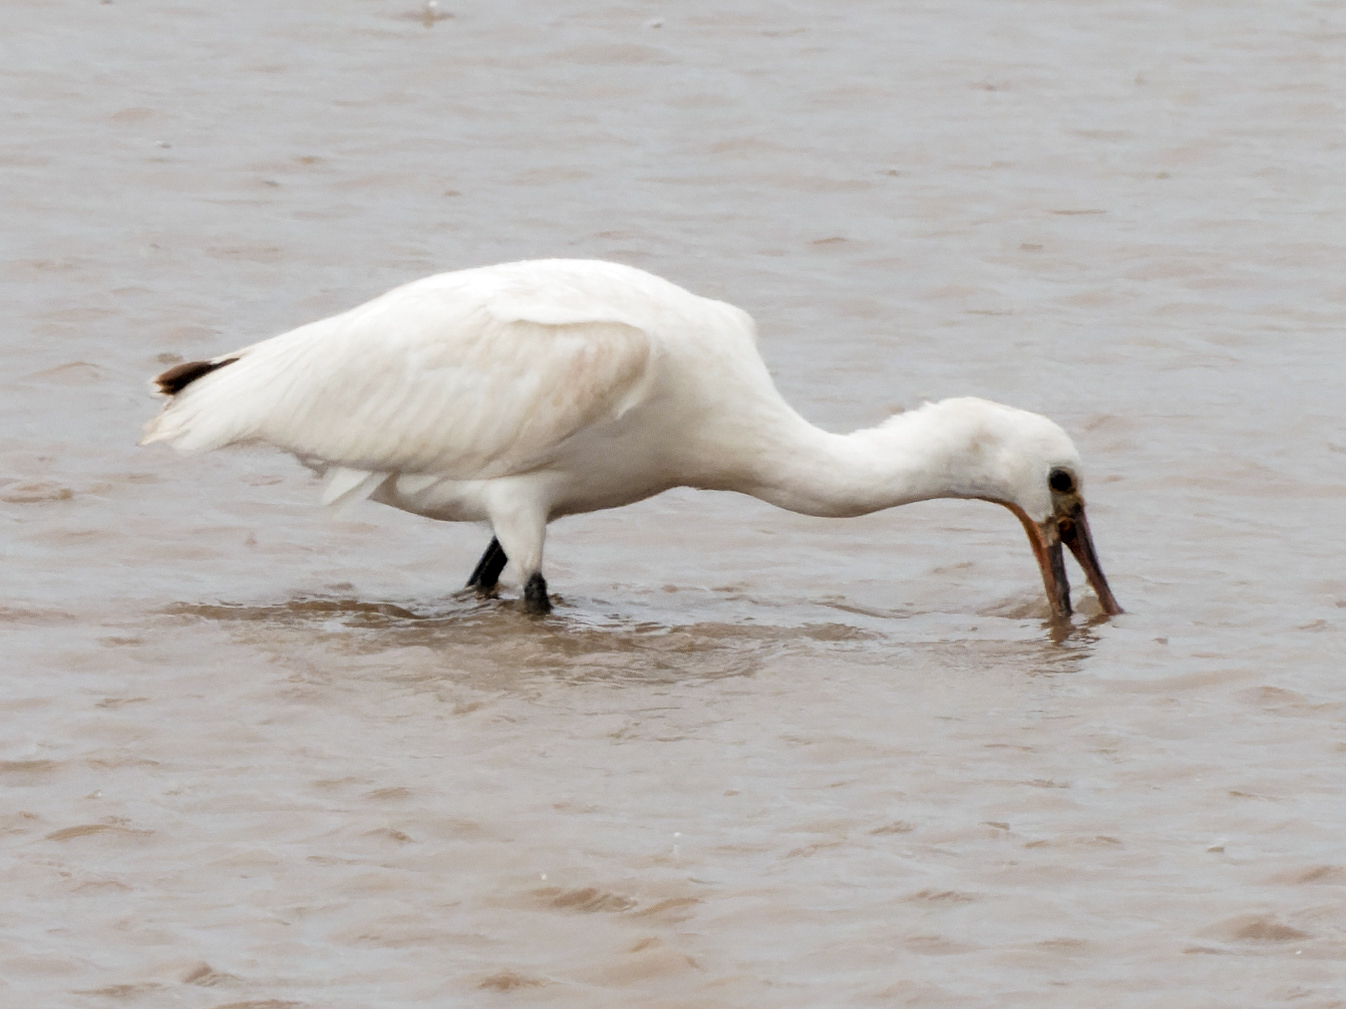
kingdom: Animalia
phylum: Chordata
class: Aves
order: Pelecaniformes
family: Threskiornithidae
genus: Platalea
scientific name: Platalea leucorodia
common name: Eurasian spoonbill
